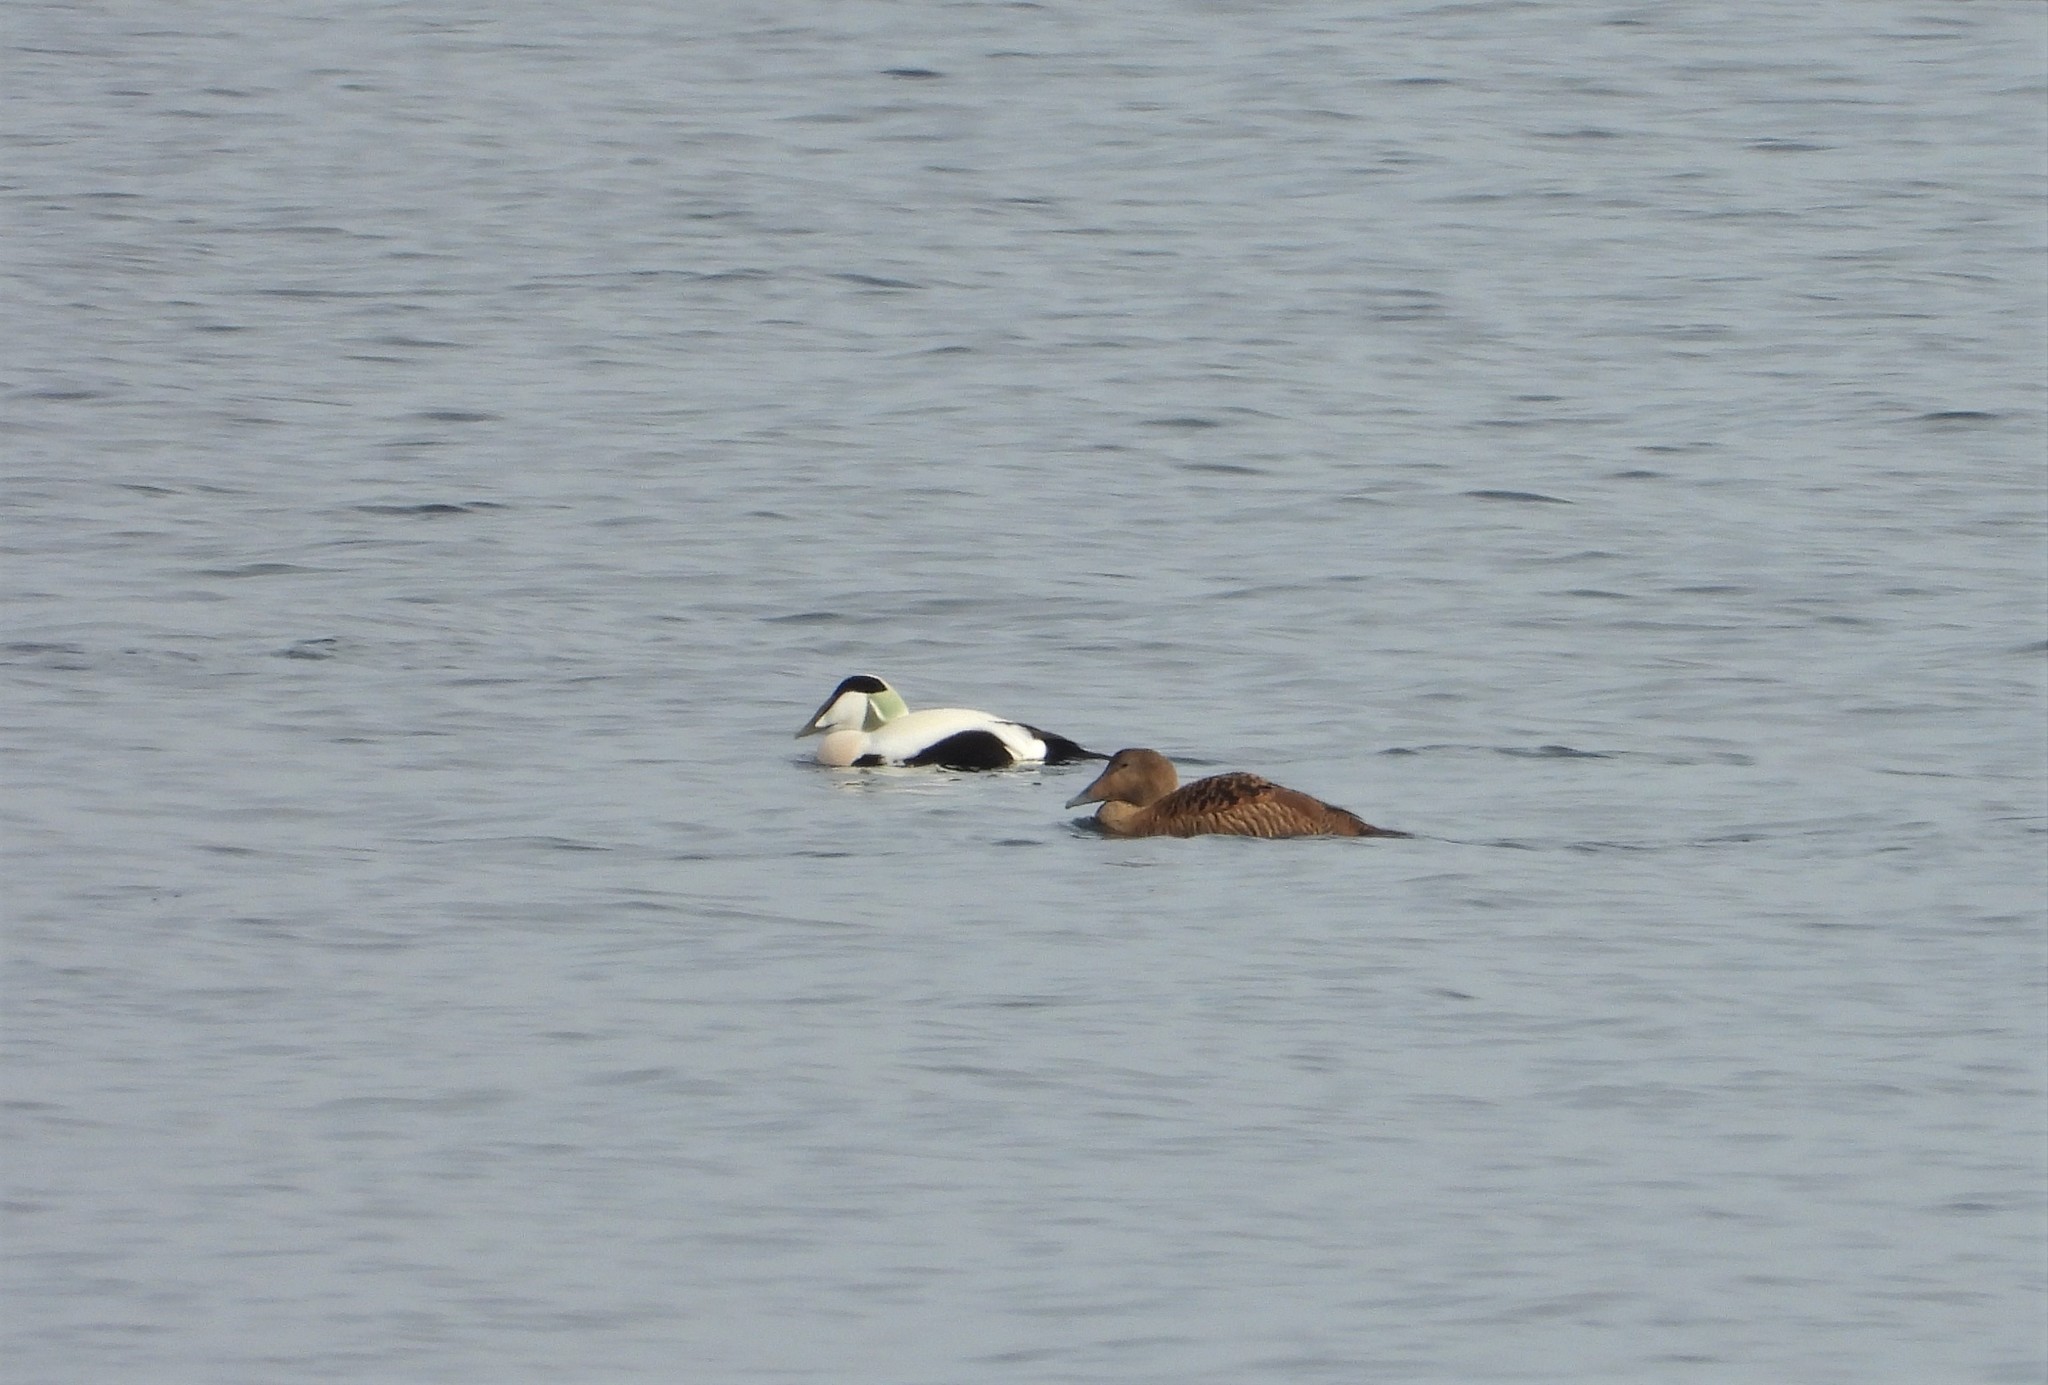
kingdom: Animalia
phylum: Chordata
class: Aves
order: Anseriformes
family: Anatidae
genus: Somateria
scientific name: Somateria mollissima
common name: Common eider
